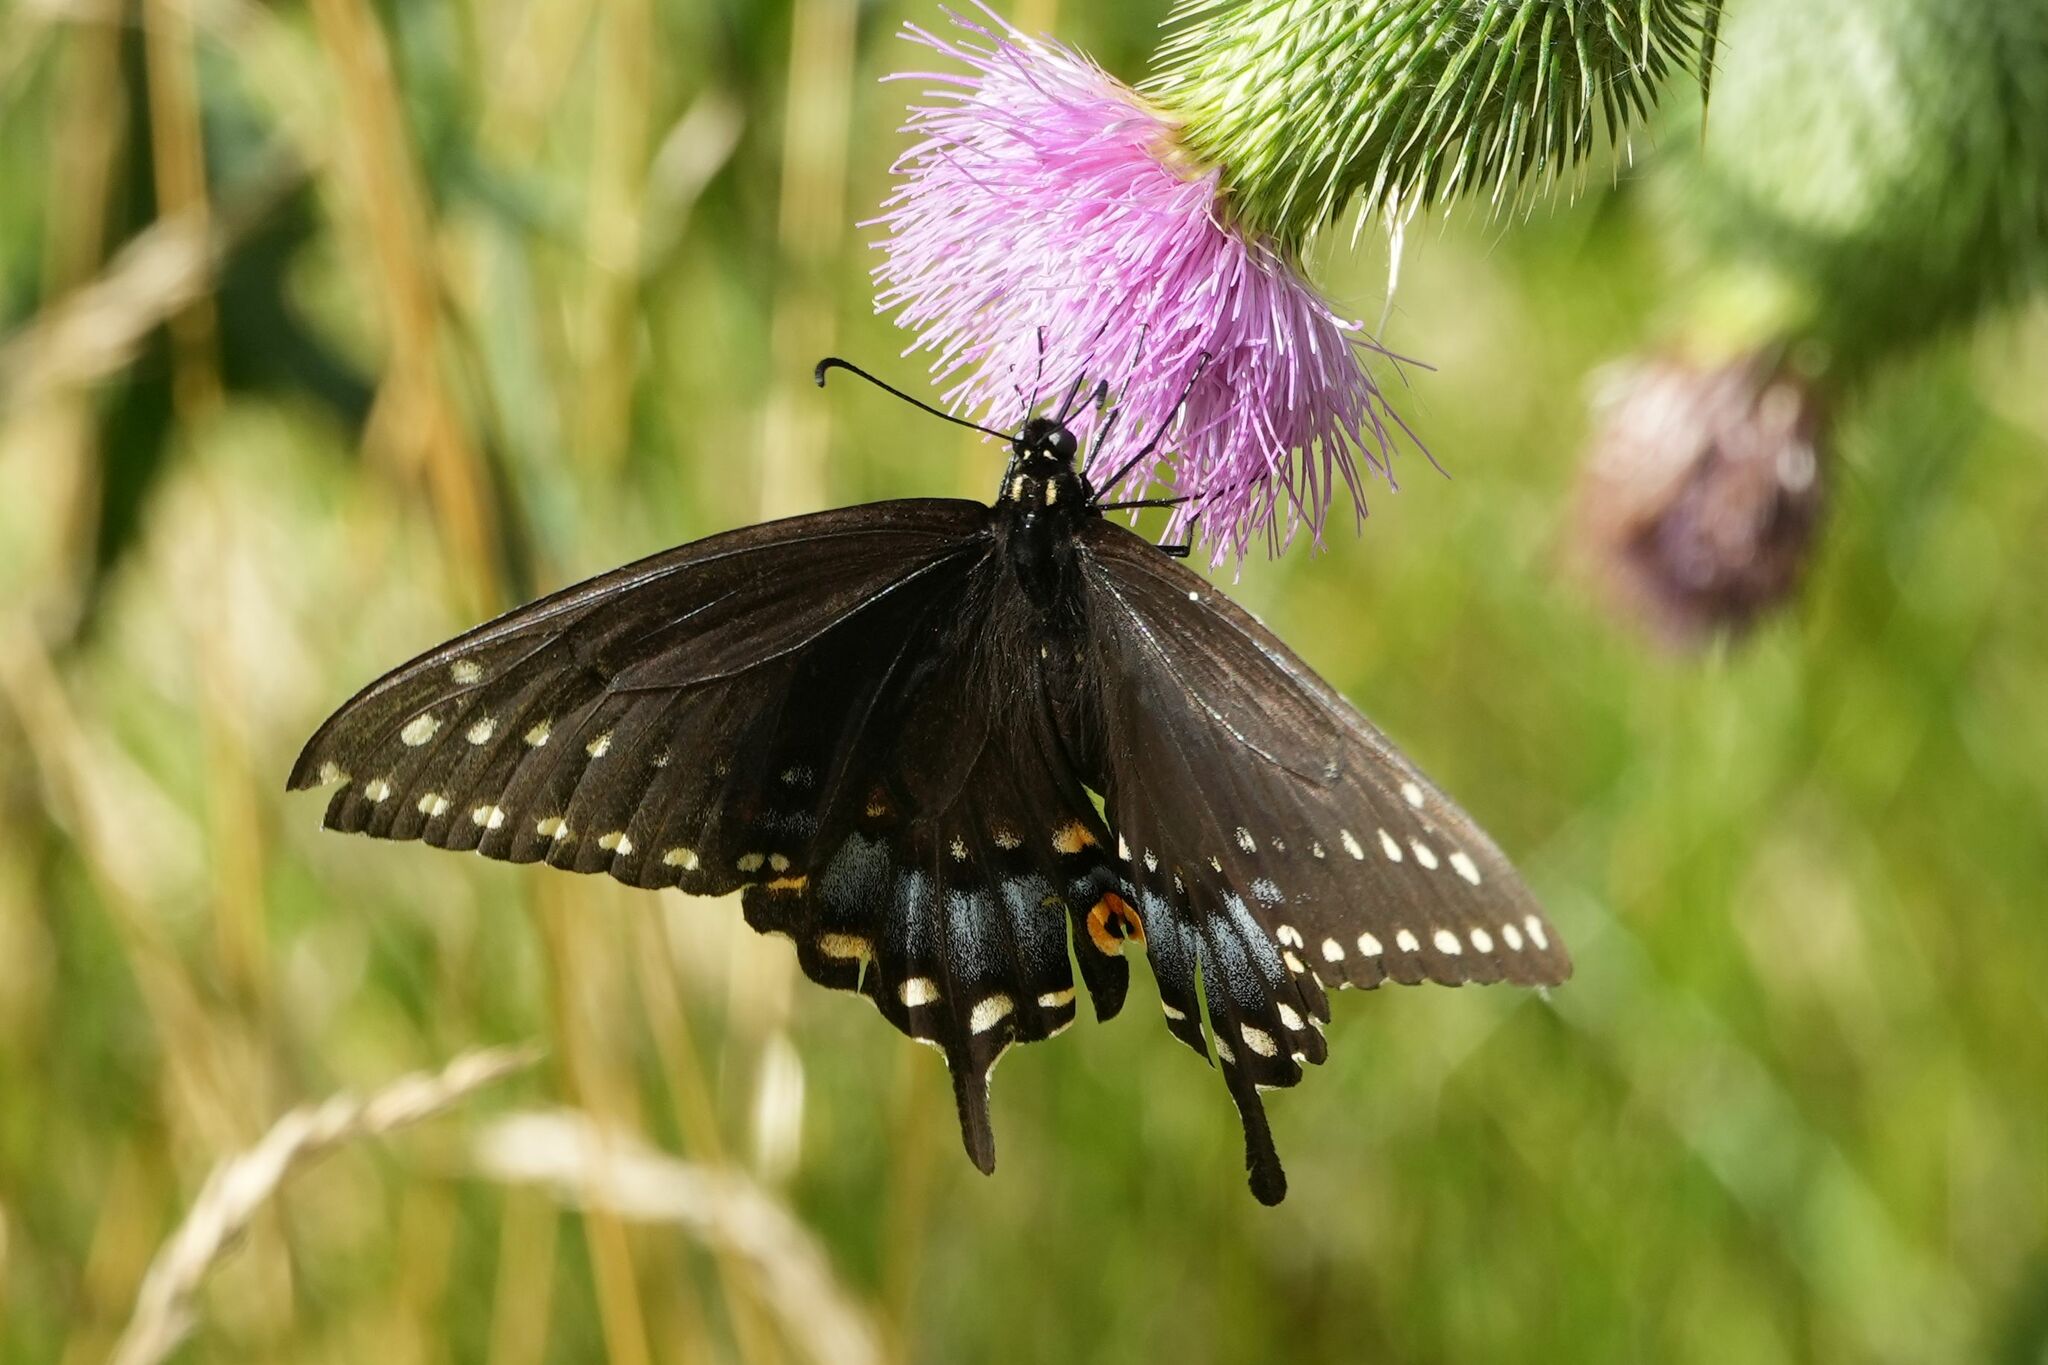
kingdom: Animalia
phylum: Arthropoda
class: Insecta
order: Lepidoptera
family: Papilionidae
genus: Papilio
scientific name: Papilio polyxenes
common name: Black swallowtail
